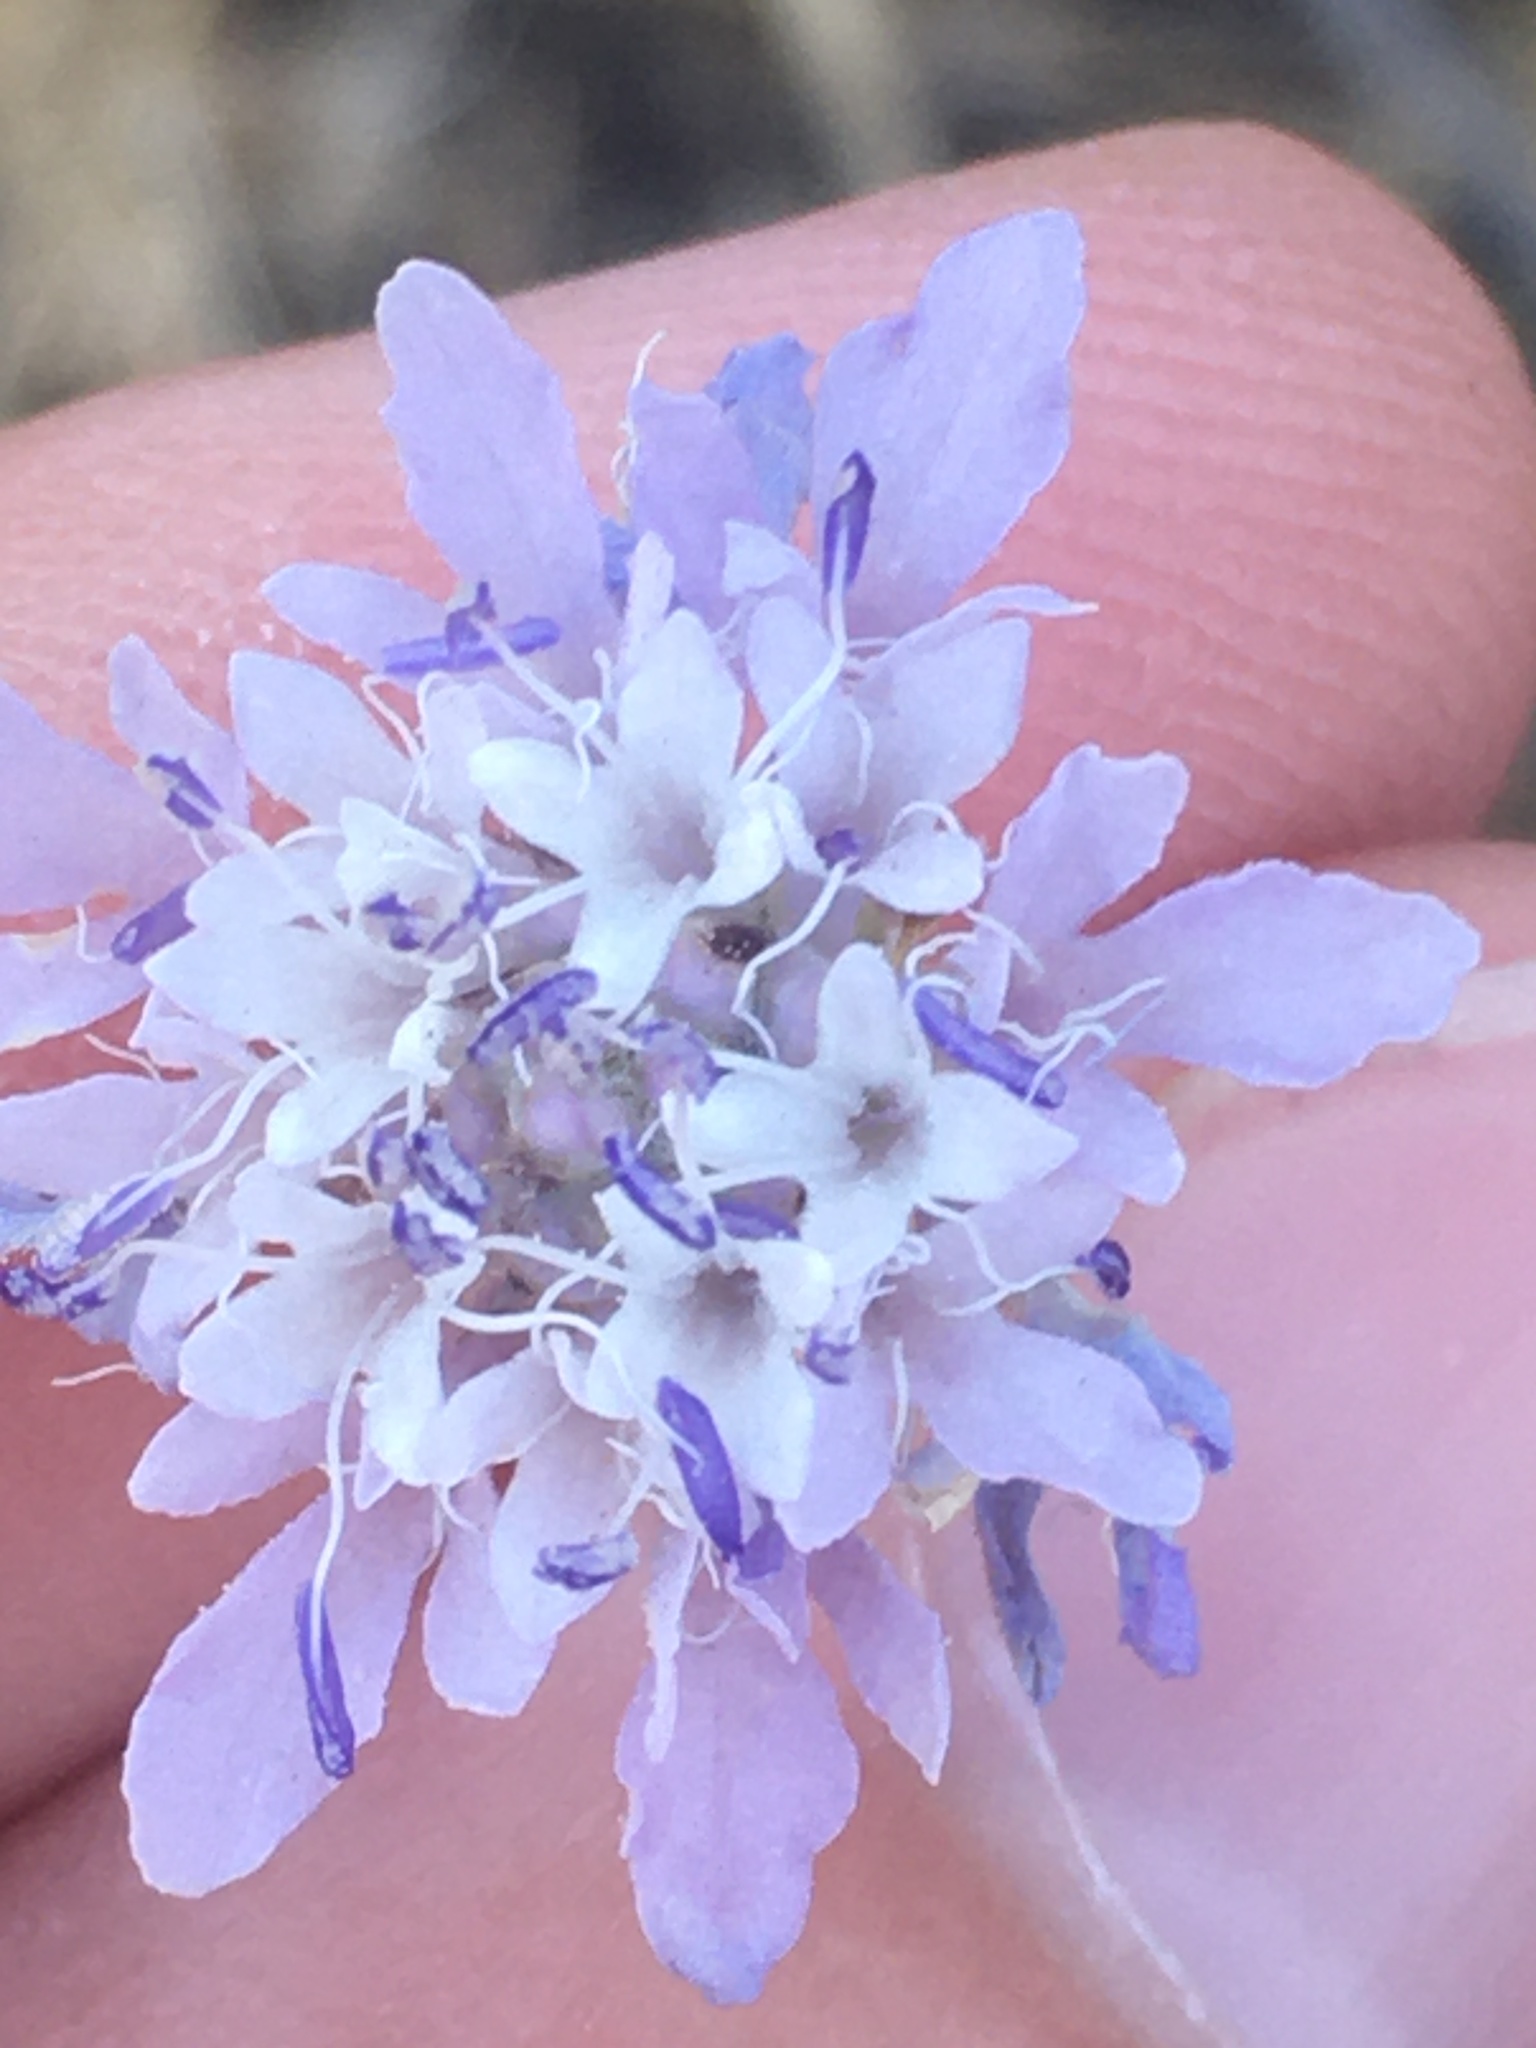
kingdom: Plantae
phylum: Tracheophyta
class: Magnoliopsida
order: Dipsacales
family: Caprifoliaceae
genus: Cephalaria
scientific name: Cephalaria transsylvanica
